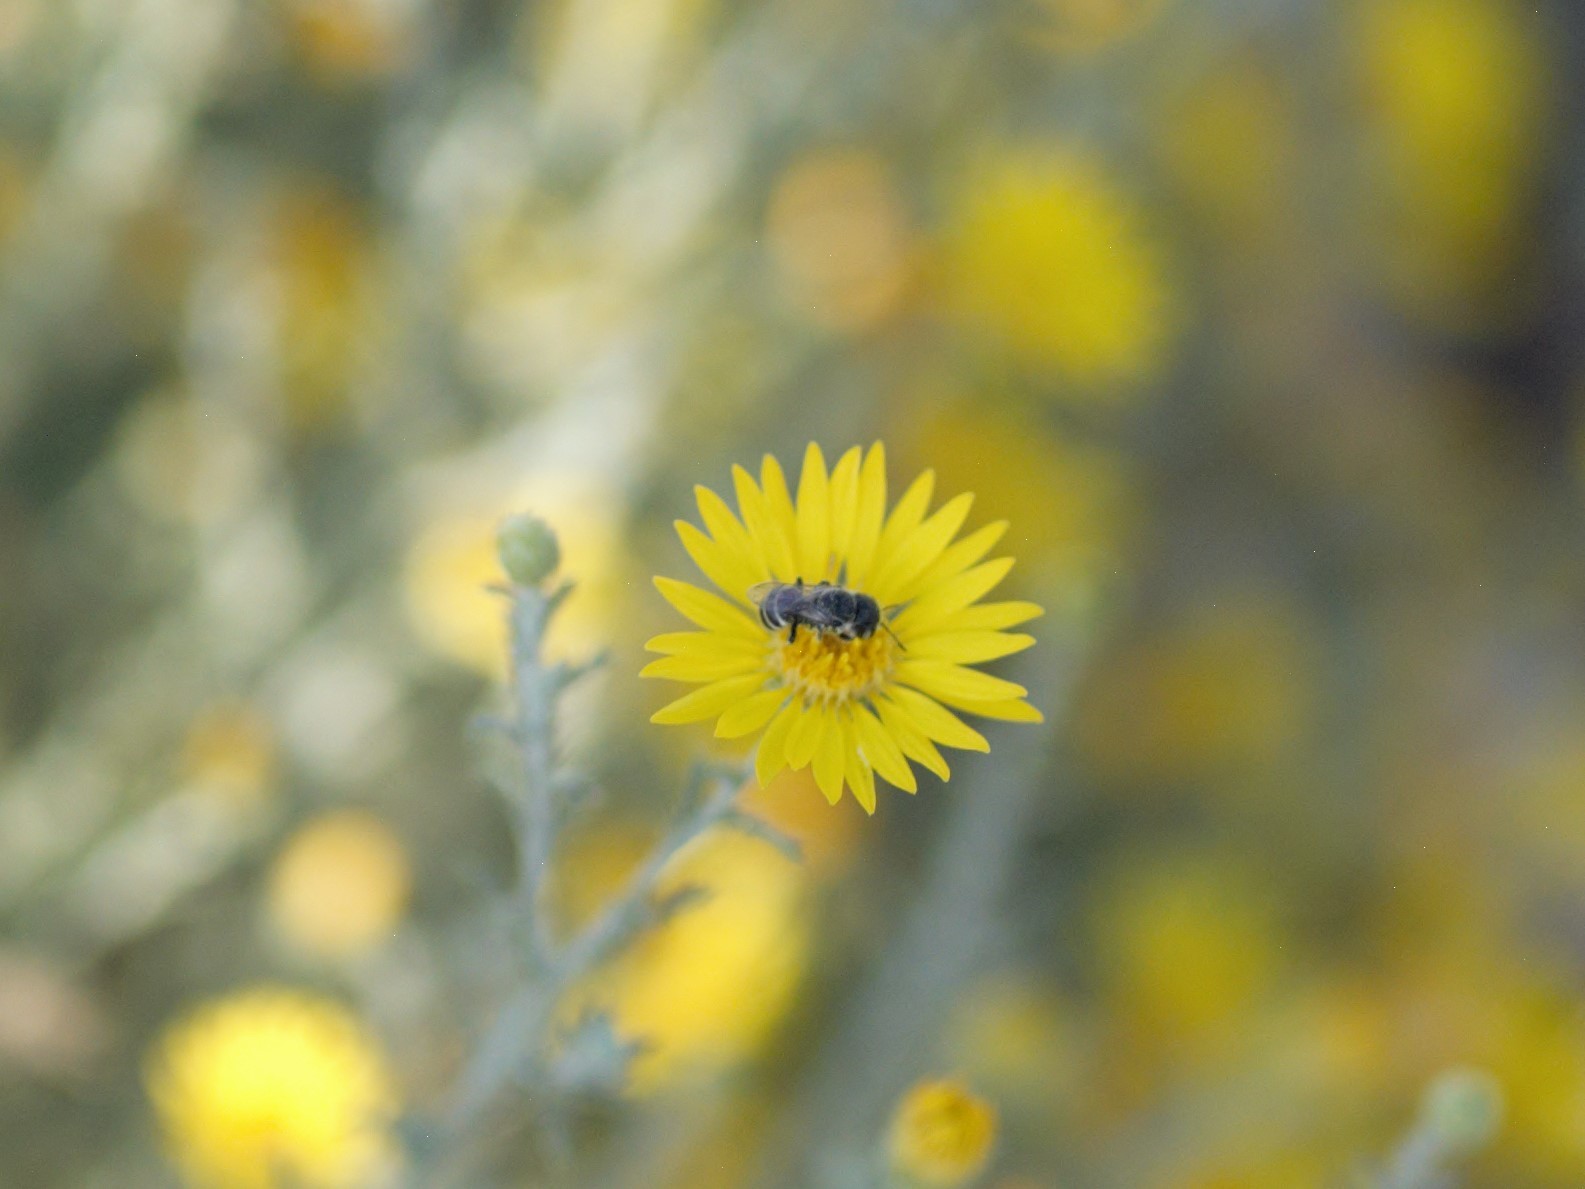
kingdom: Animalia
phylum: Arthropoda
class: Insecta
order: Hymenoptera
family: Megachilidae
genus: Ashmeadiella
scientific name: Ashmeadiella
